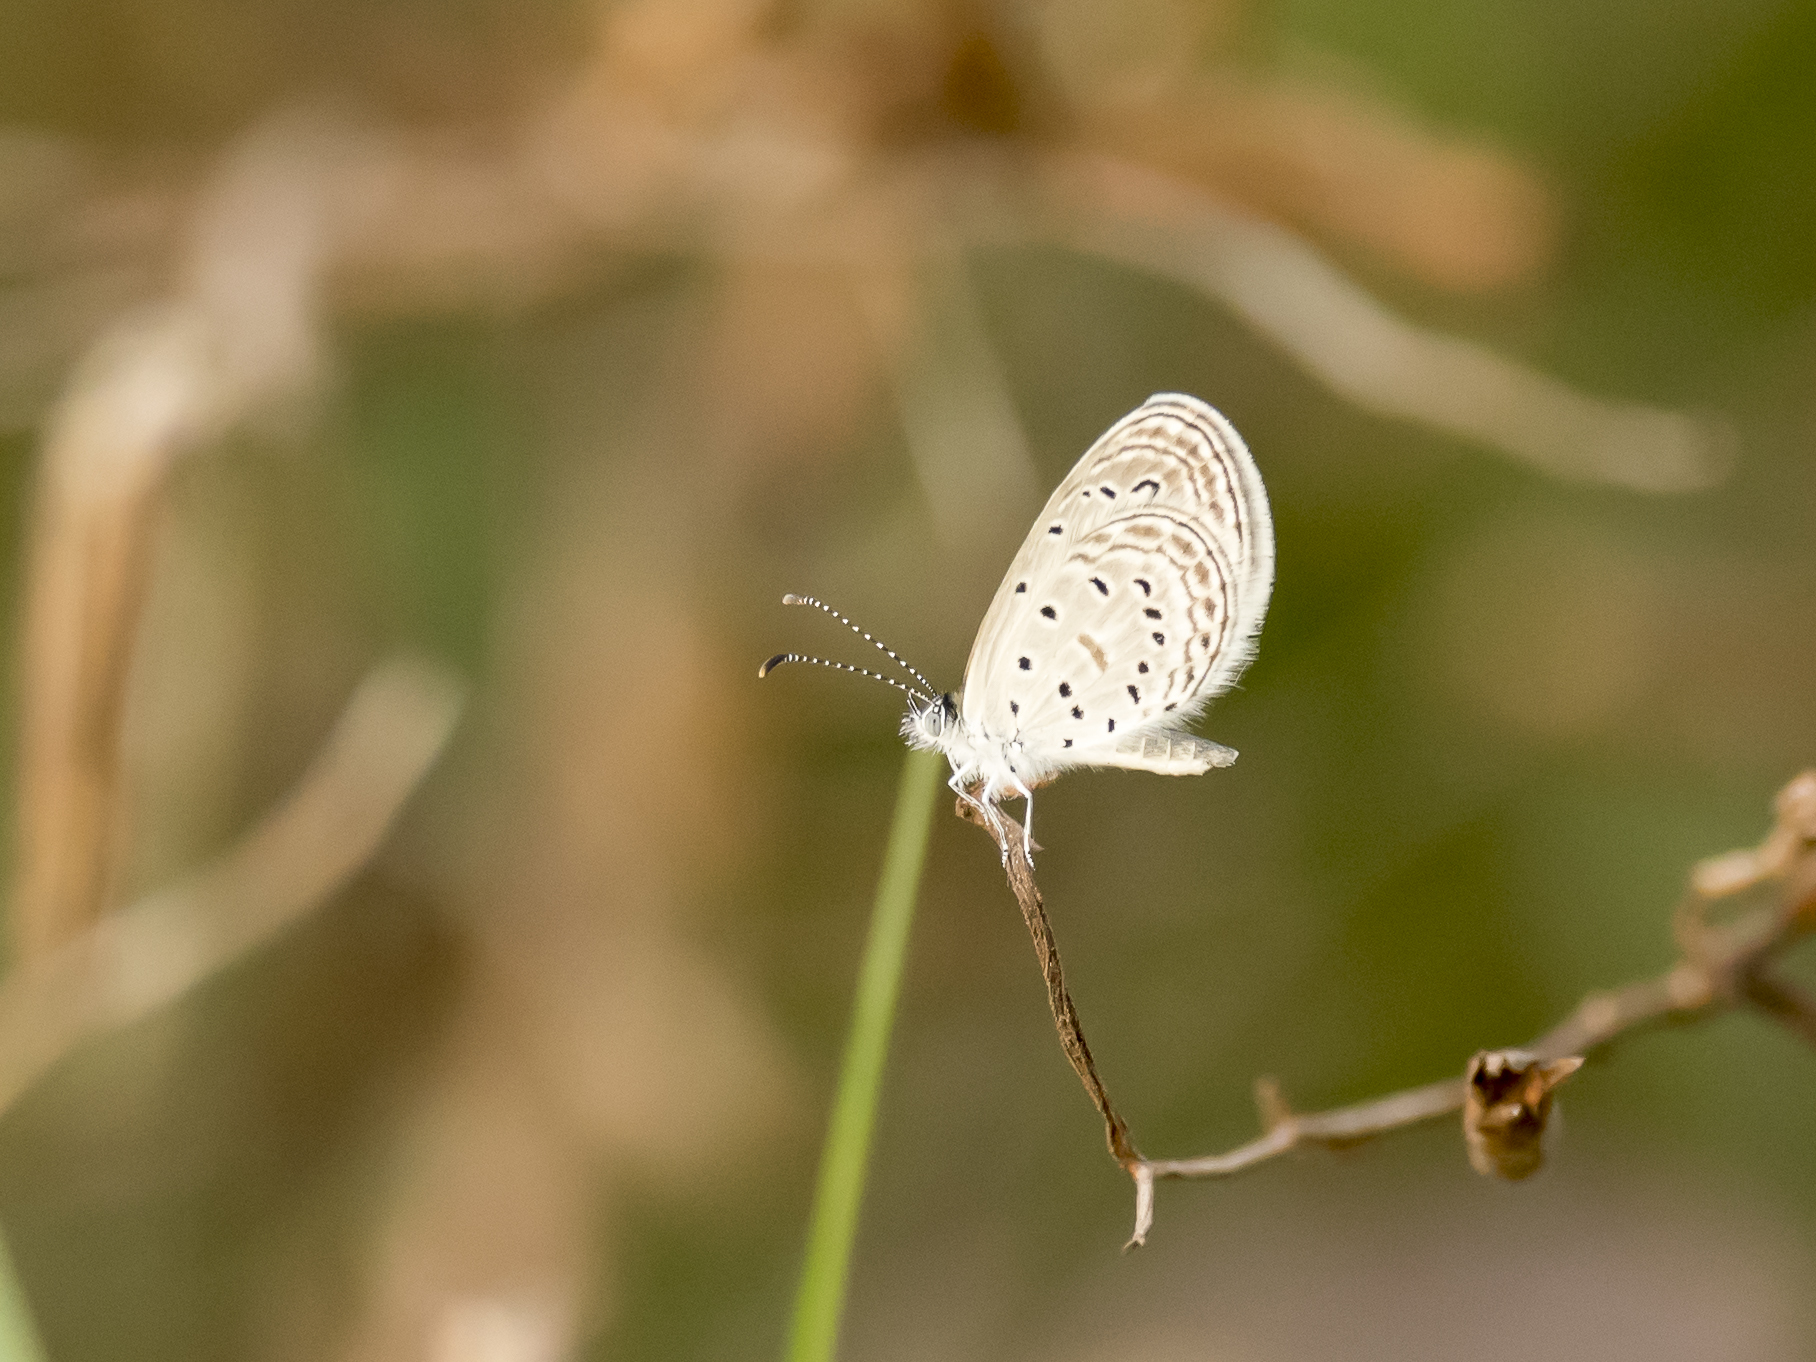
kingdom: Animalia
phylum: Arthropoda
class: Insecta
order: Lepidoptera
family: Lycaenidae
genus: Zizula
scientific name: Zizula hylax
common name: Gaika blue
